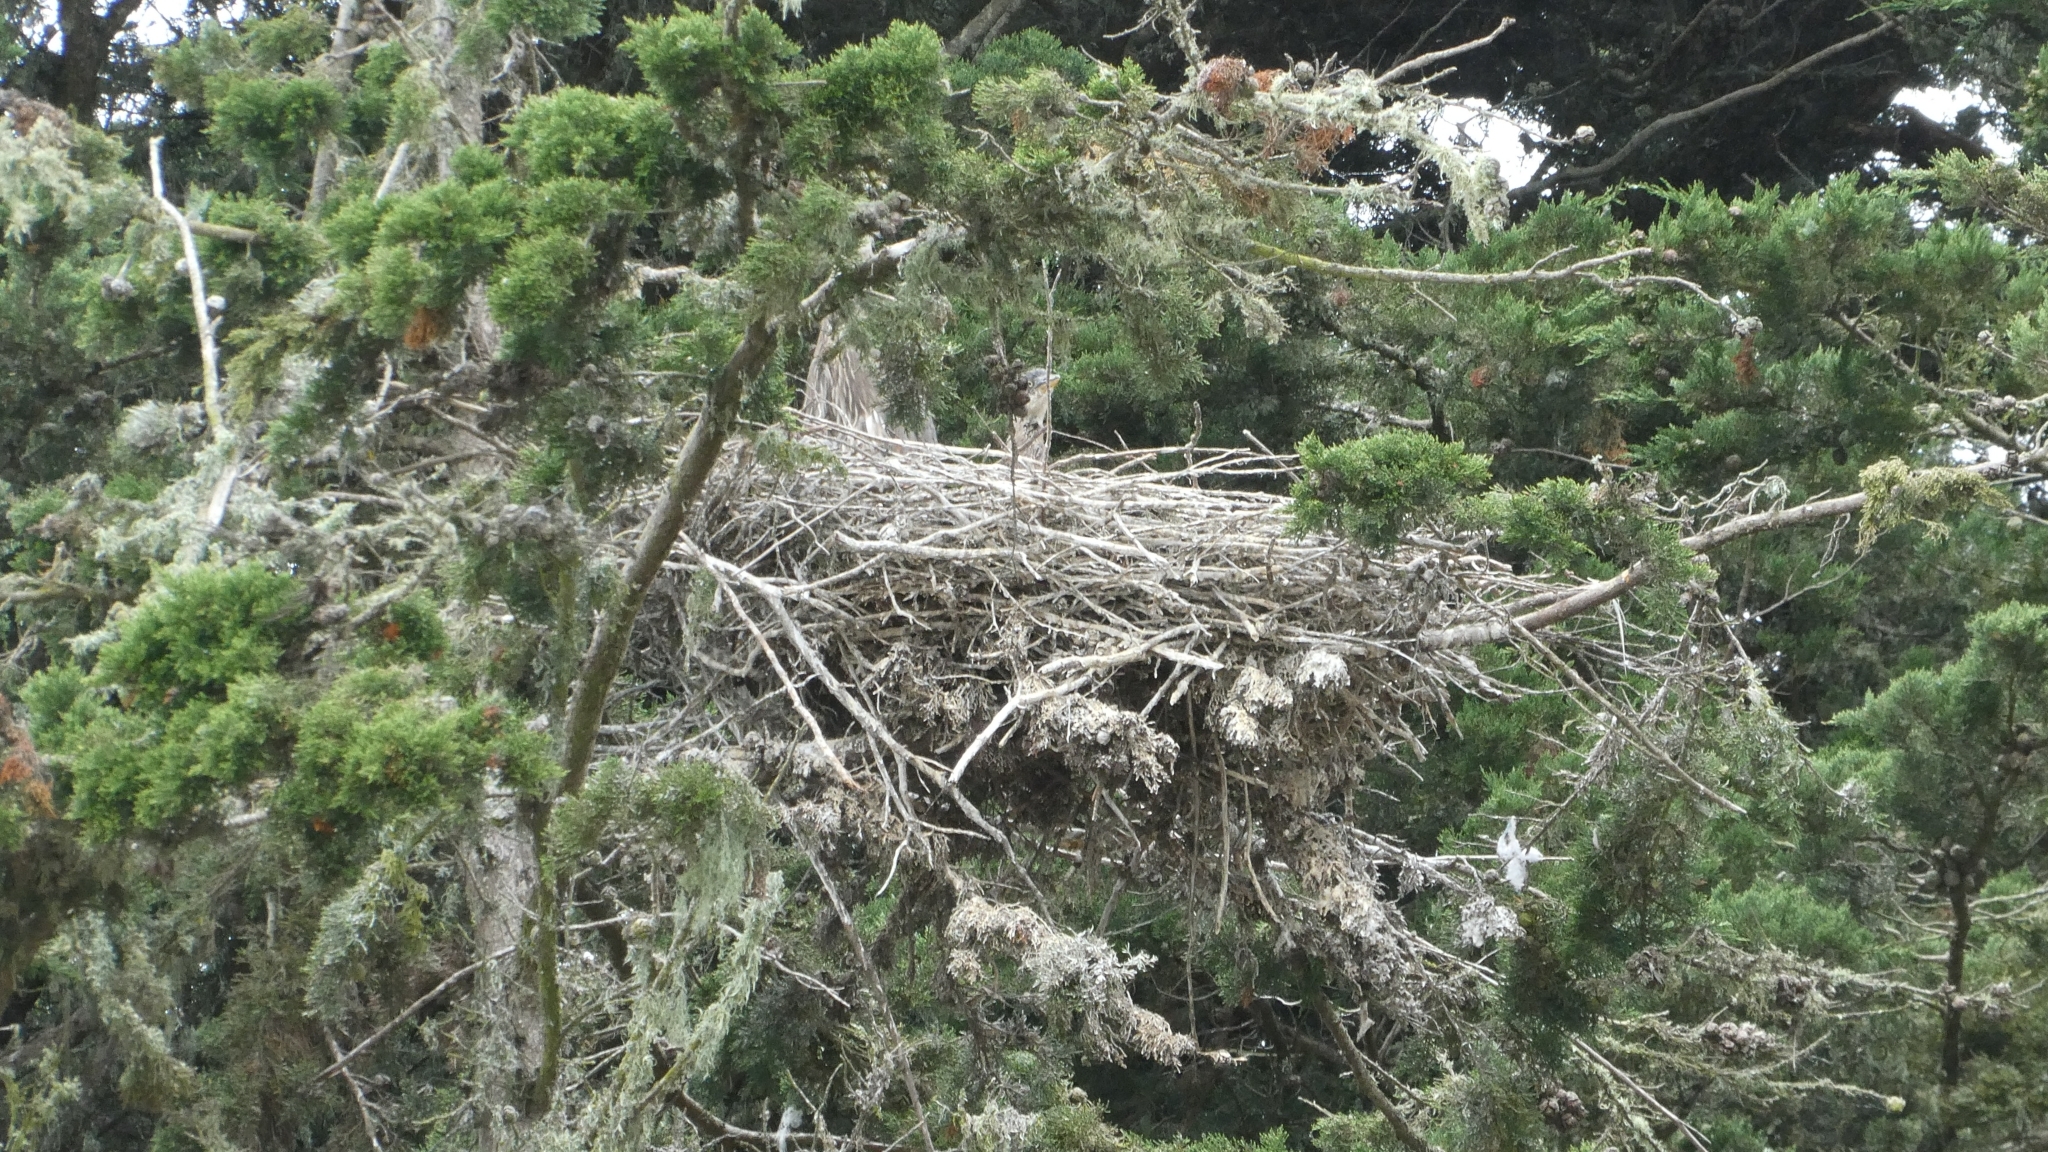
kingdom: Animalia
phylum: Chordata
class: Aves
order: Pelecaniformes
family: Ardeidae
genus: Ardea
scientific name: Ardea herodias
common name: Great blue heron
